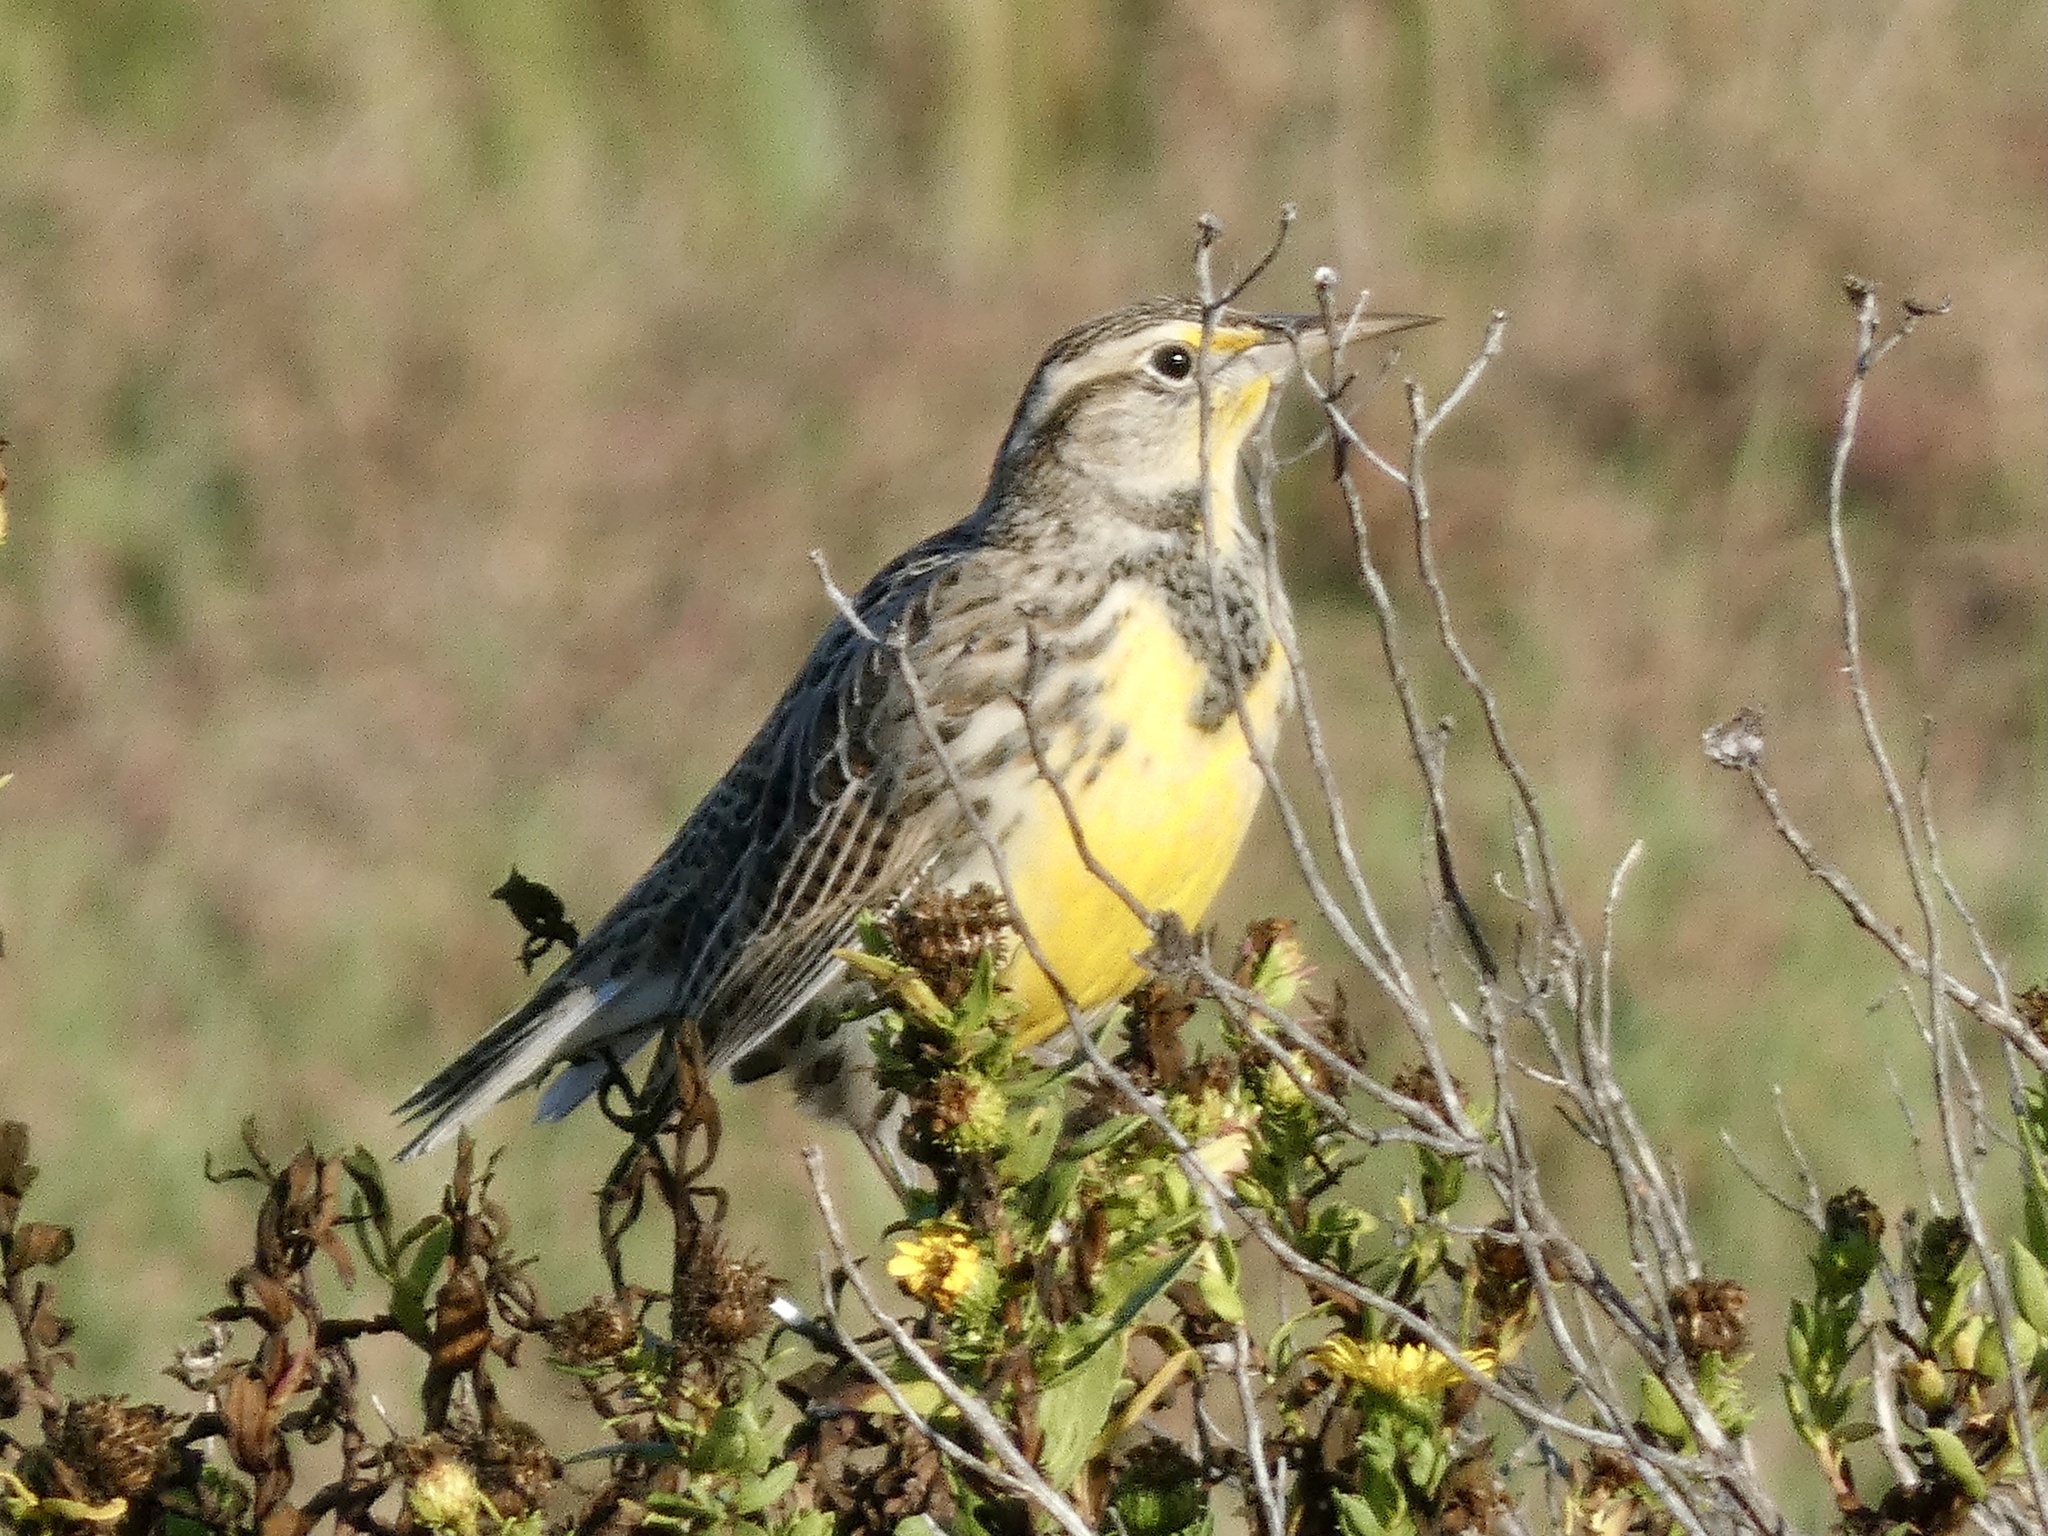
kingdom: Animalia
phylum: Chordata
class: Aves
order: Passeriformes
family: Icteridae
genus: Sturnella
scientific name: Sturnella neglecta
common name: Western meadowlark
